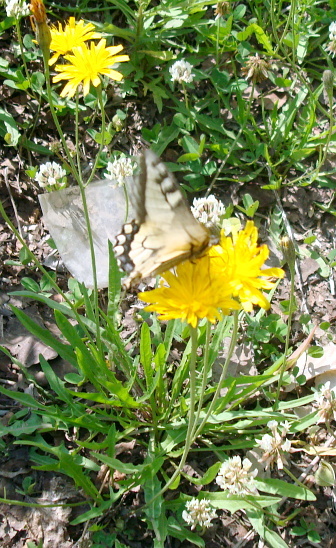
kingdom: Plantae
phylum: Tracheophyta
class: Magnoliopsida
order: Asterales
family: Asteraceae
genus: Scorzoneroides
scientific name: Scorzoneroides autumnalis
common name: Autumn hawkbit
